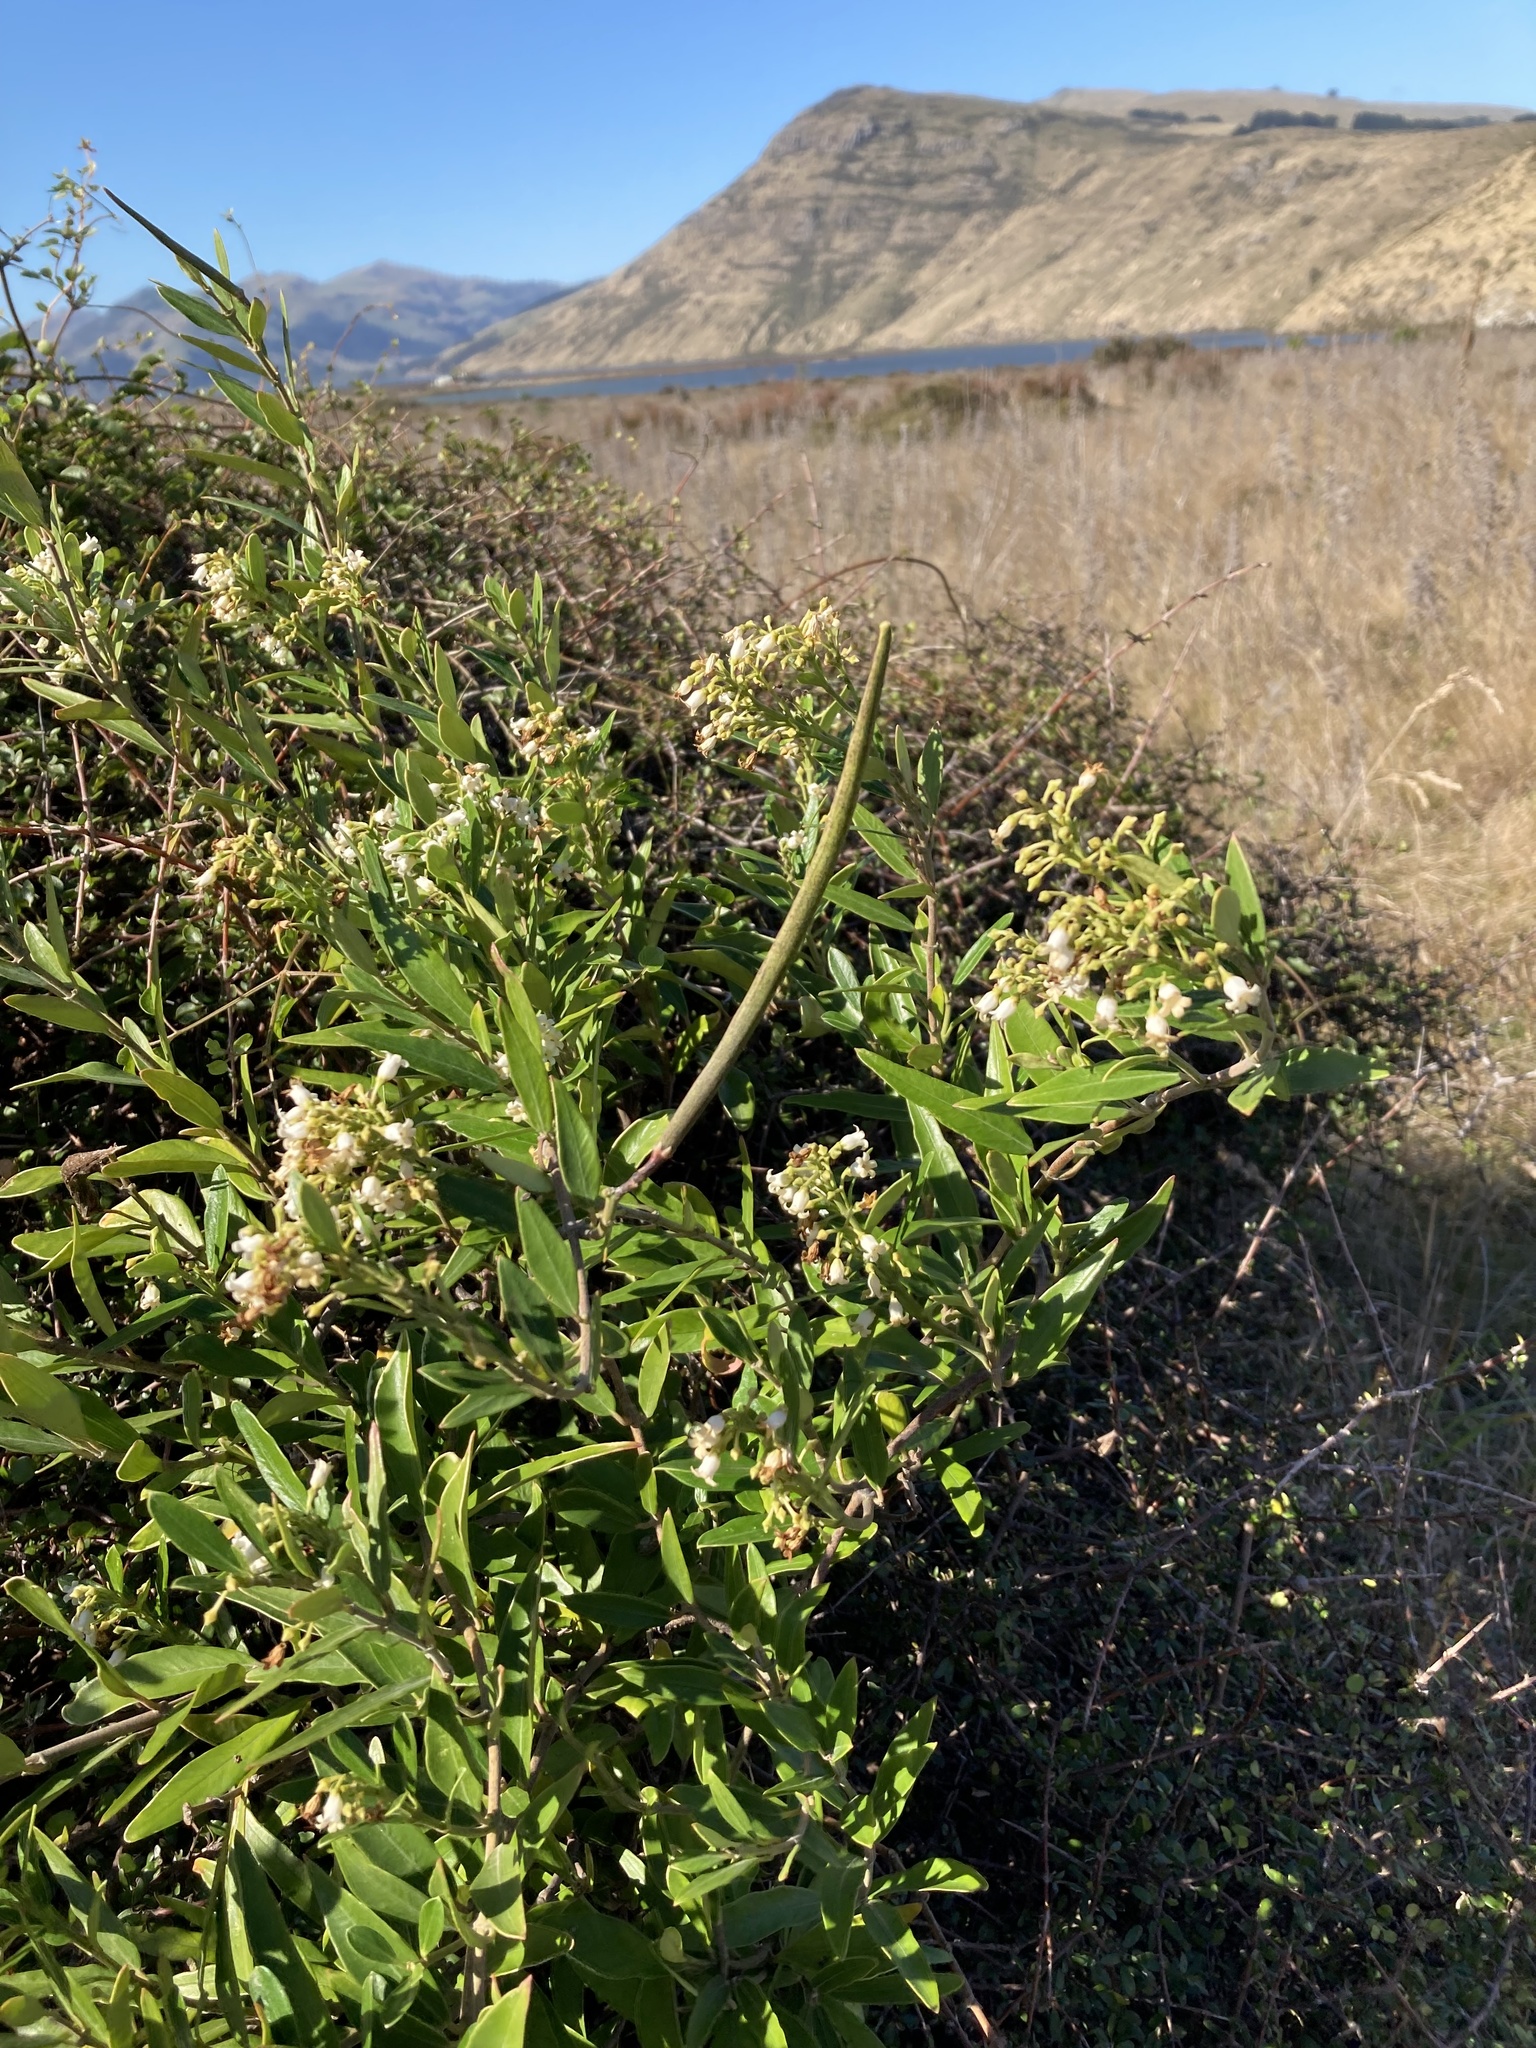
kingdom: Plantae
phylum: Tracheophyta
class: Magnoliopsida
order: Gentianales
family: Apocynaceae
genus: Parsonsia
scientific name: Parsonsia heterophylla
